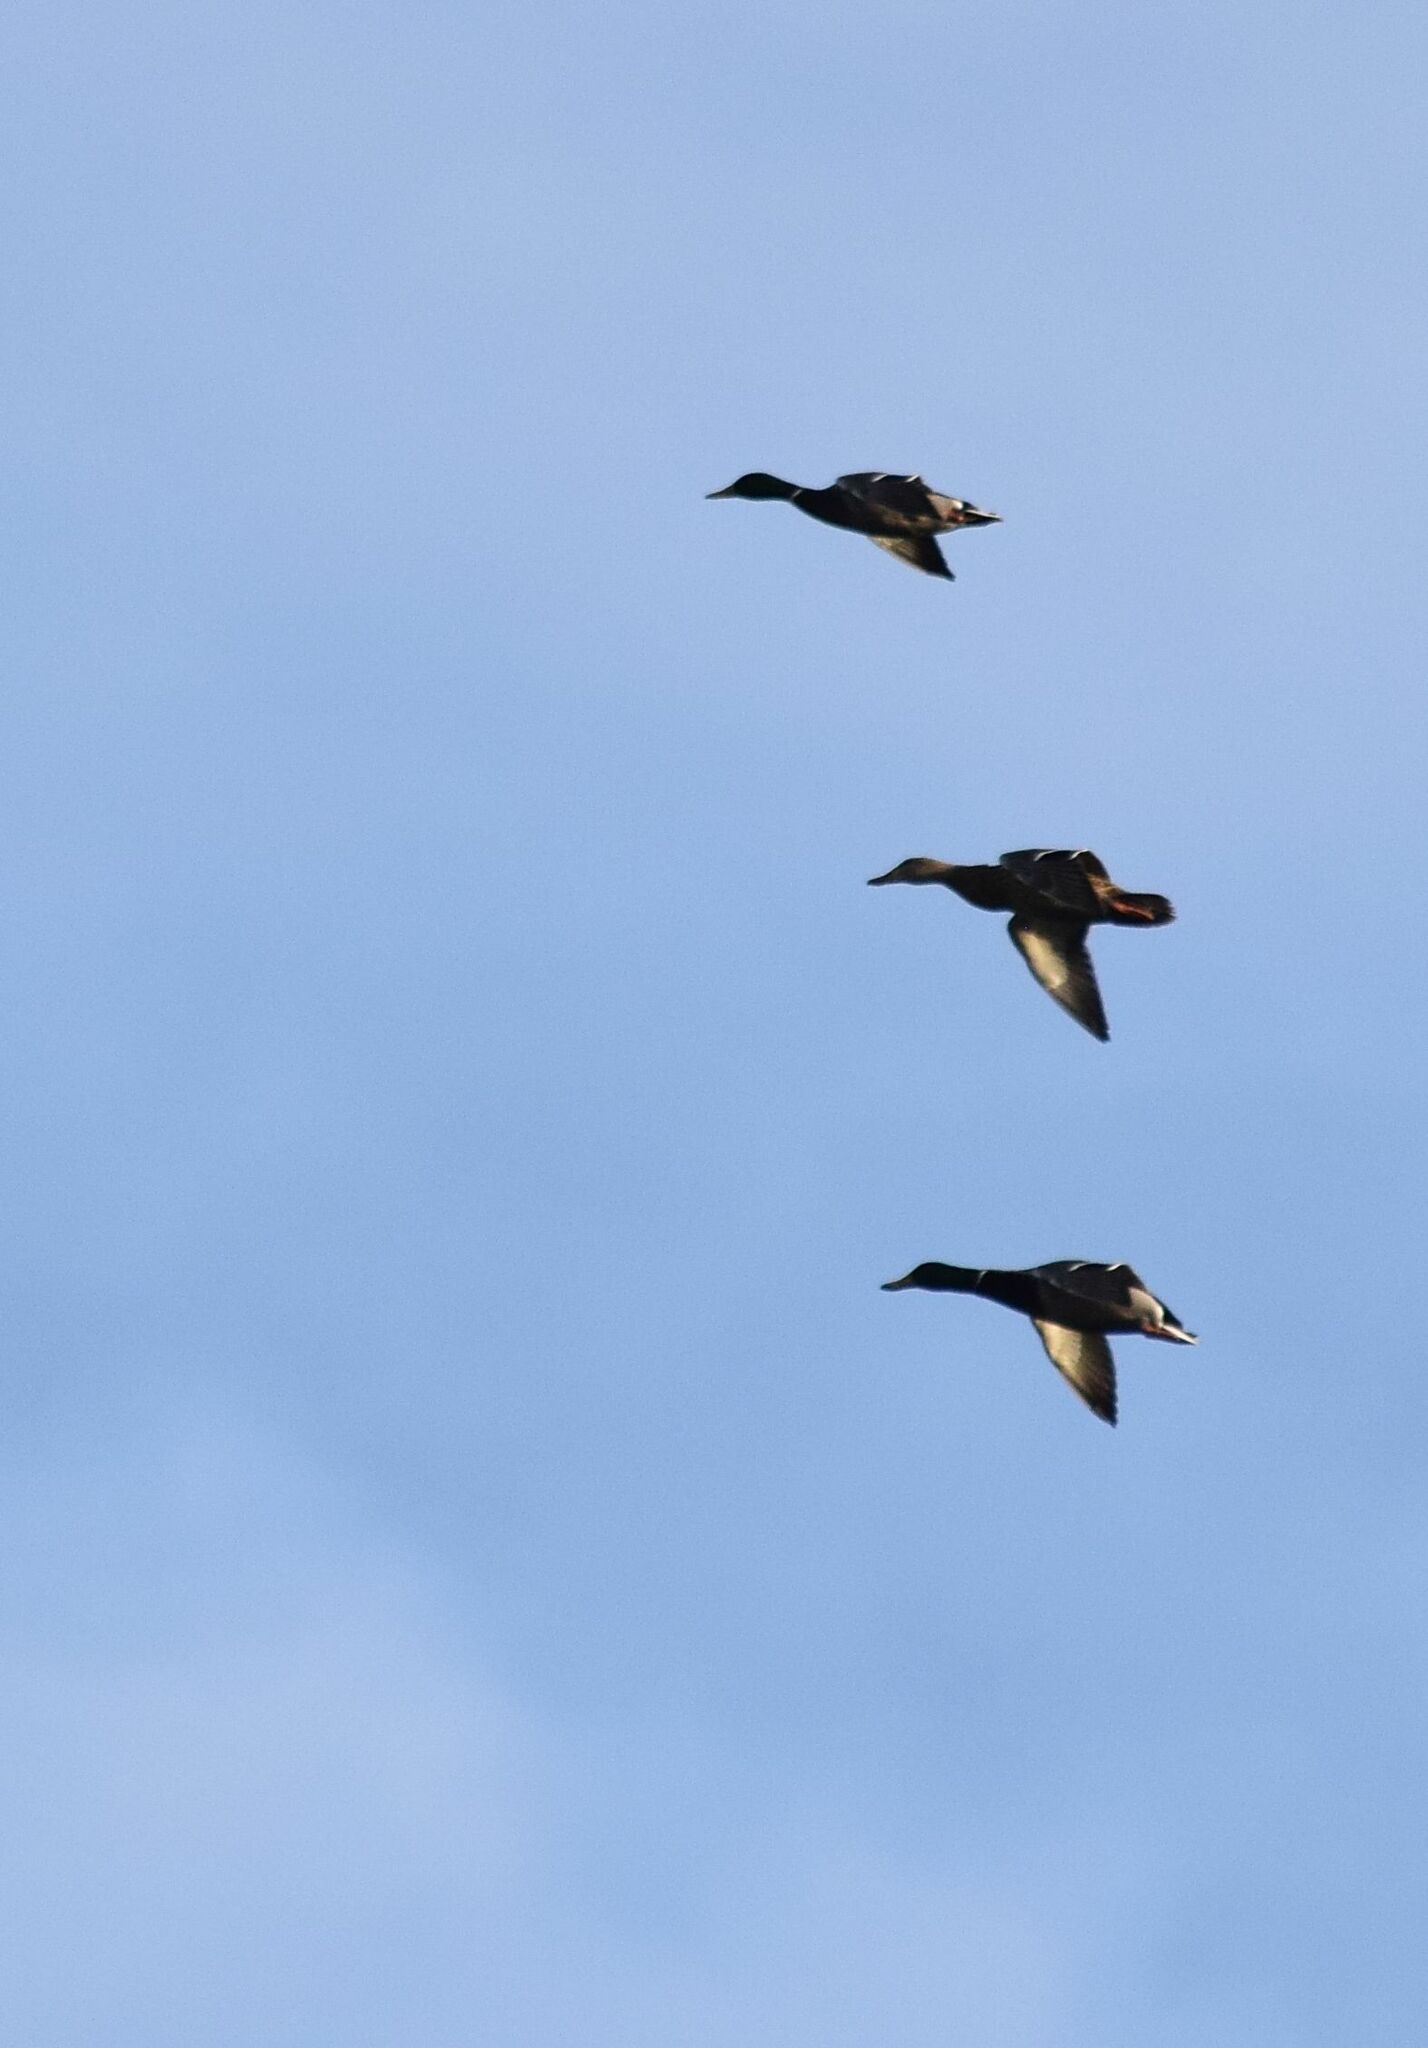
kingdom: Animalia
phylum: Chordata
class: Aves
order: Anseriformes
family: Anatidae
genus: Anas
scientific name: Anas platyrhynchos
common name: Mallard
